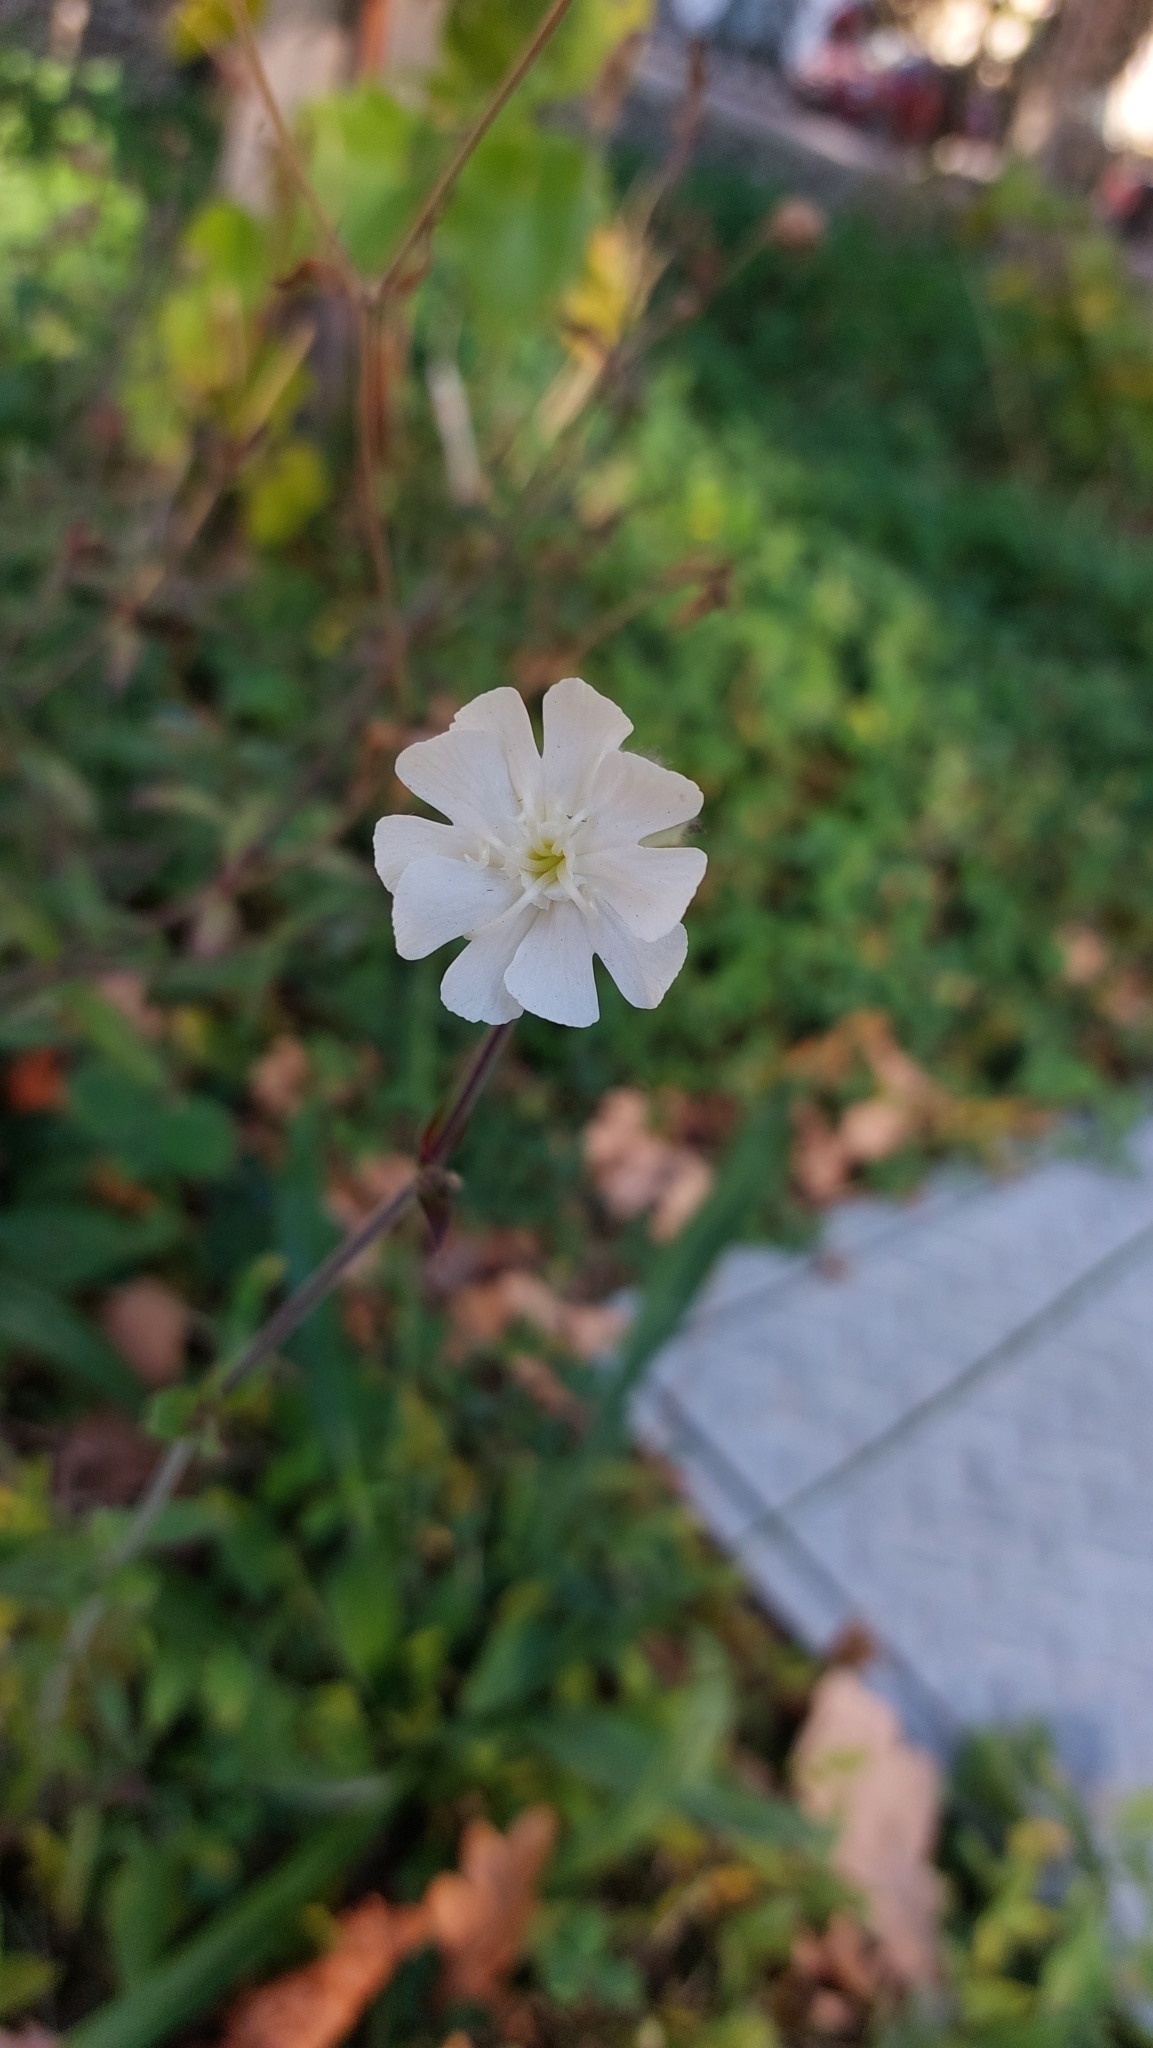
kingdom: Plantae
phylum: Tracheophyta
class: Magnoliopsida
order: Caryophyllales
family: Caryophyllaceae
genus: Silene
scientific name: Silene latifolia
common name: White campion
